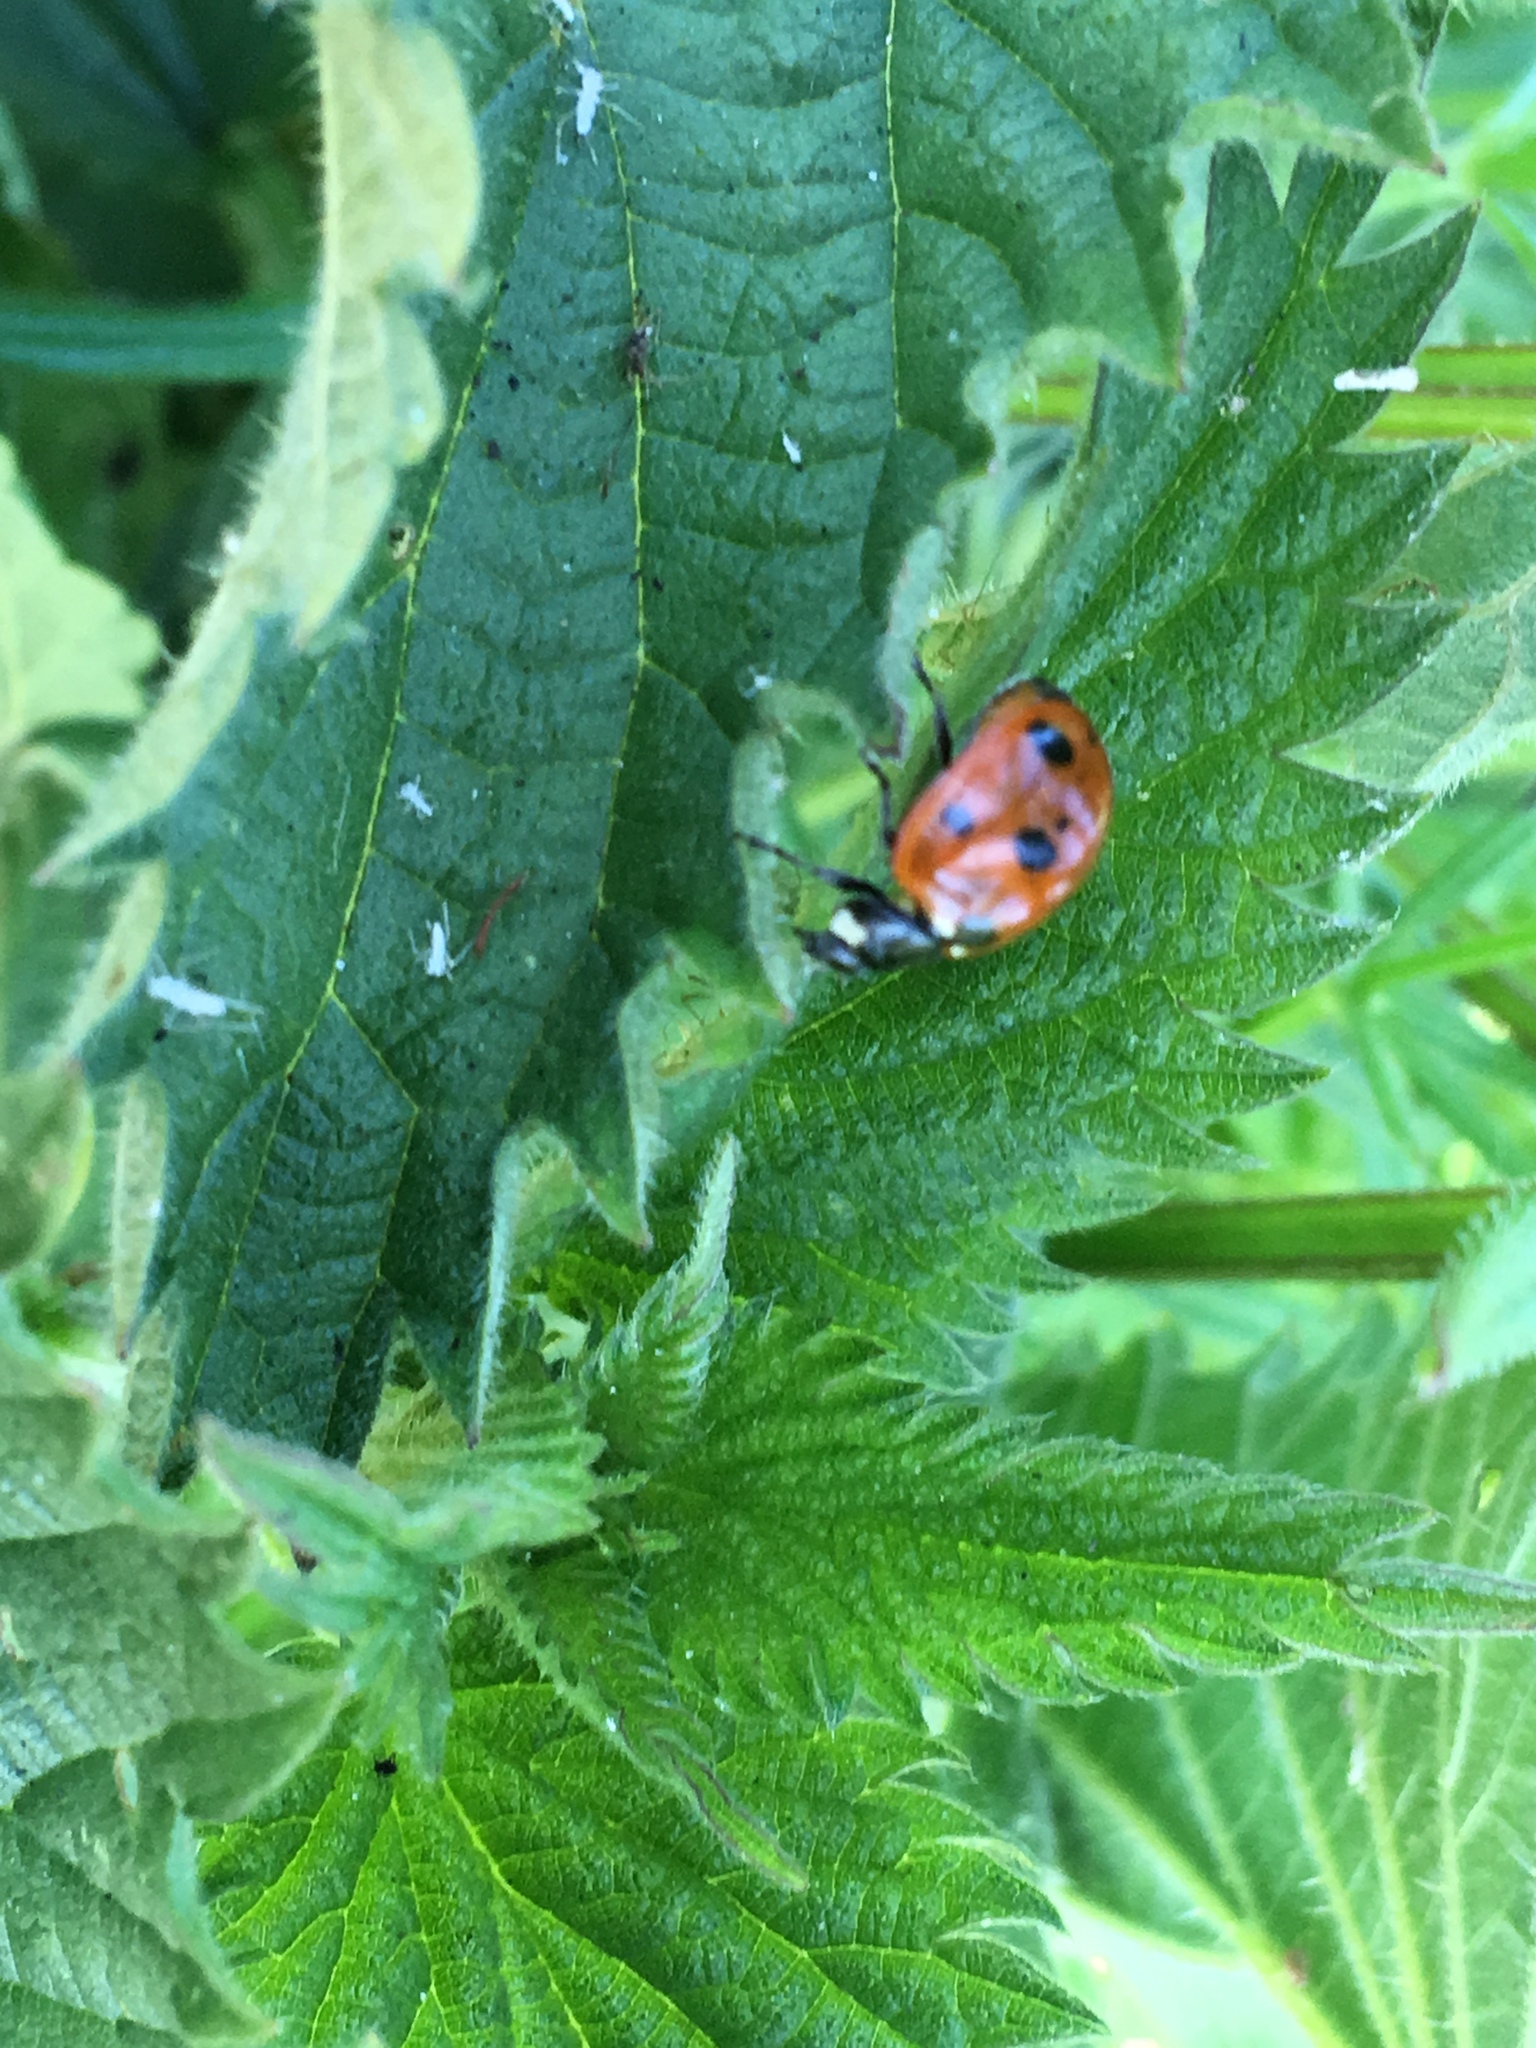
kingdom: Animalia
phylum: Arthropoda
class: Insecta
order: Coleoptera
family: Coccinellidae
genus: Coccinella
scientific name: Coccinella septempunctata
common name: Sevenspotted lady beetle
